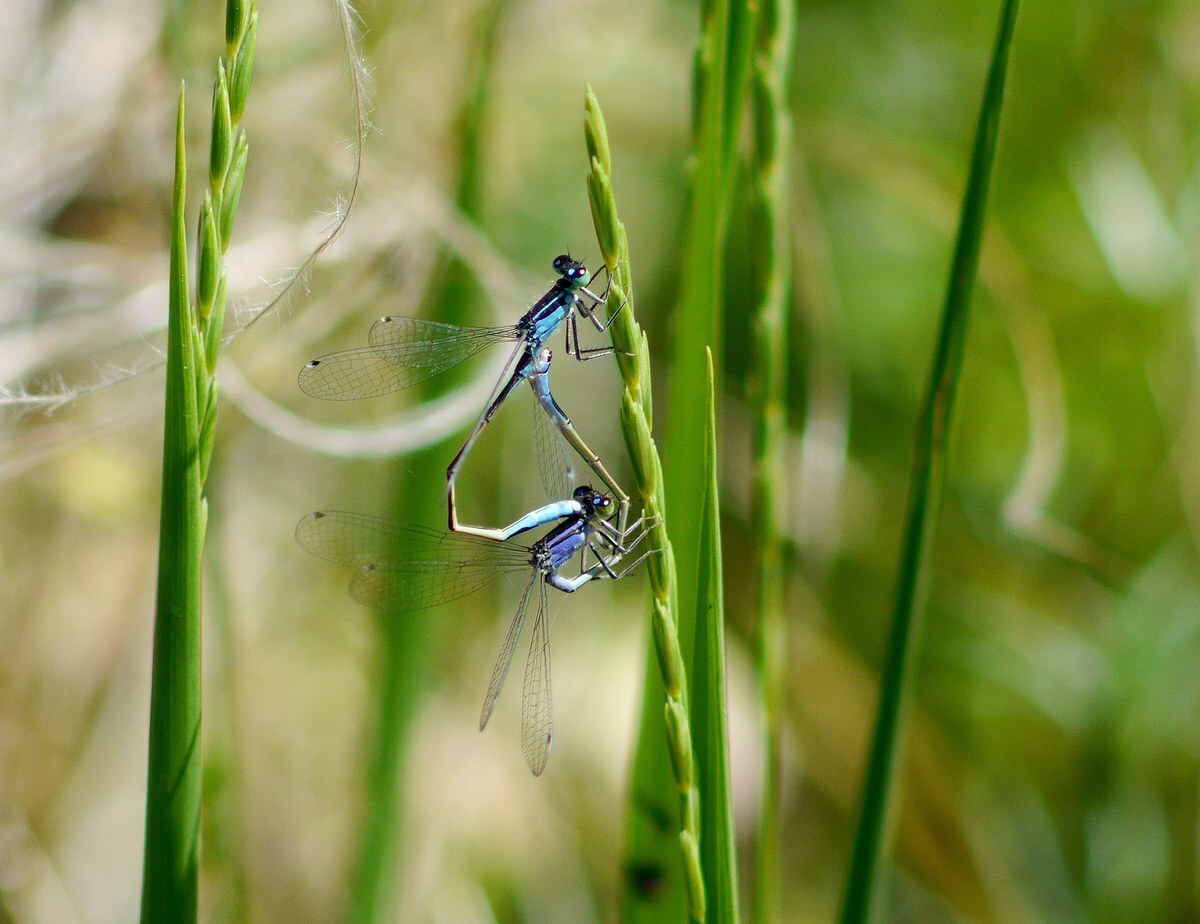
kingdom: Animalia
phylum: Arthropoda
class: Insecta
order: Odonata
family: Coenagrionidae
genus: Ischnura
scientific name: Ischnura elegans
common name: Blue-tailed damselfly
